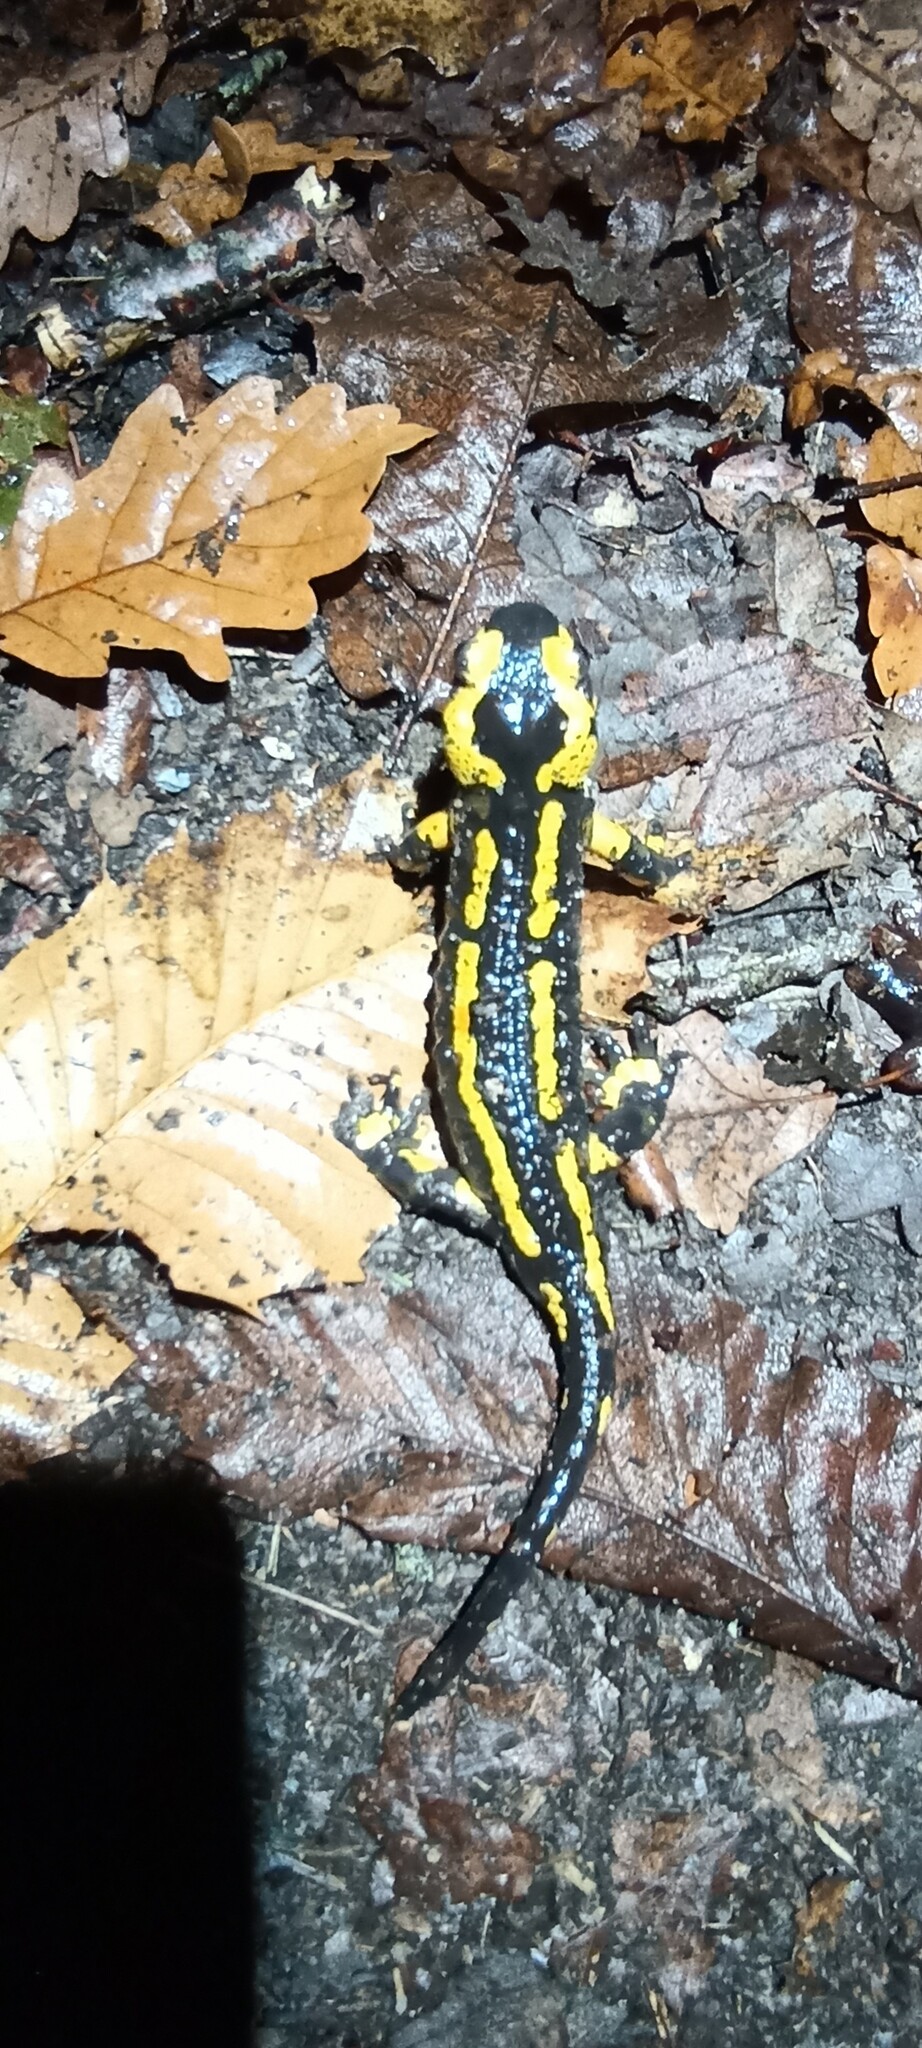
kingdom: Animalia
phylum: Chordata
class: Amphibia
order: Caudata
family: Salamandridae
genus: Salamandra
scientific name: Salamandra salamandra
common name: Fire salamander
